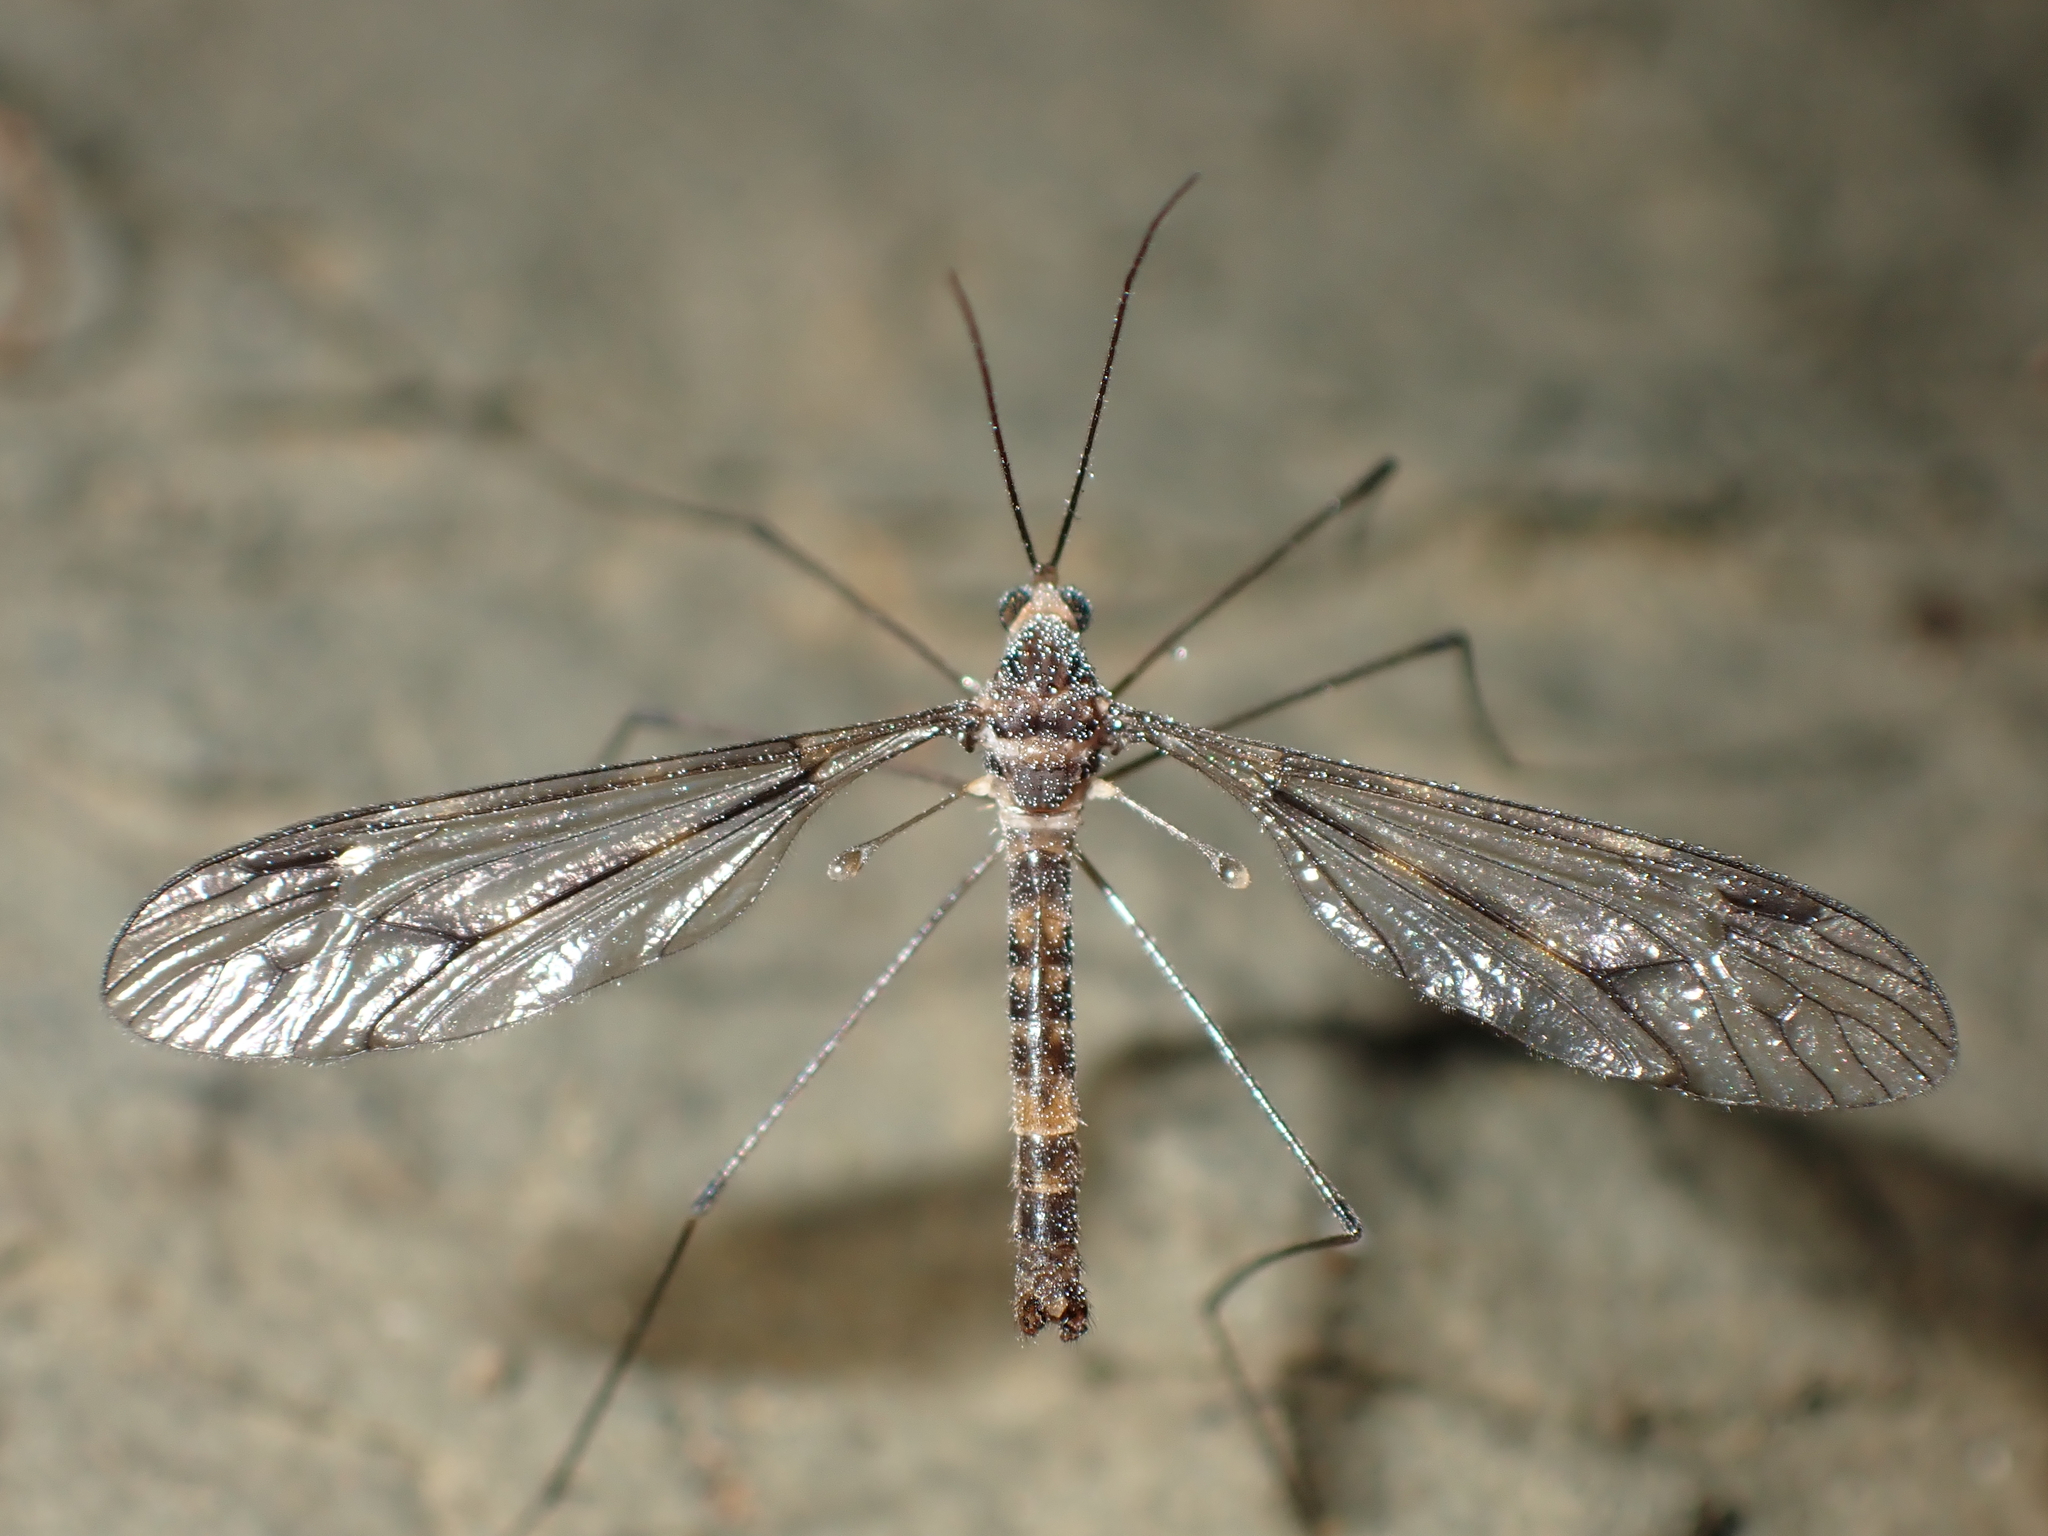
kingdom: Animalia
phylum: Arthropoda
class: Insecta
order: Diptera
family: Tipulidae
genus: Leptotarsus
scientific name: Leptotarsus cubitalis
